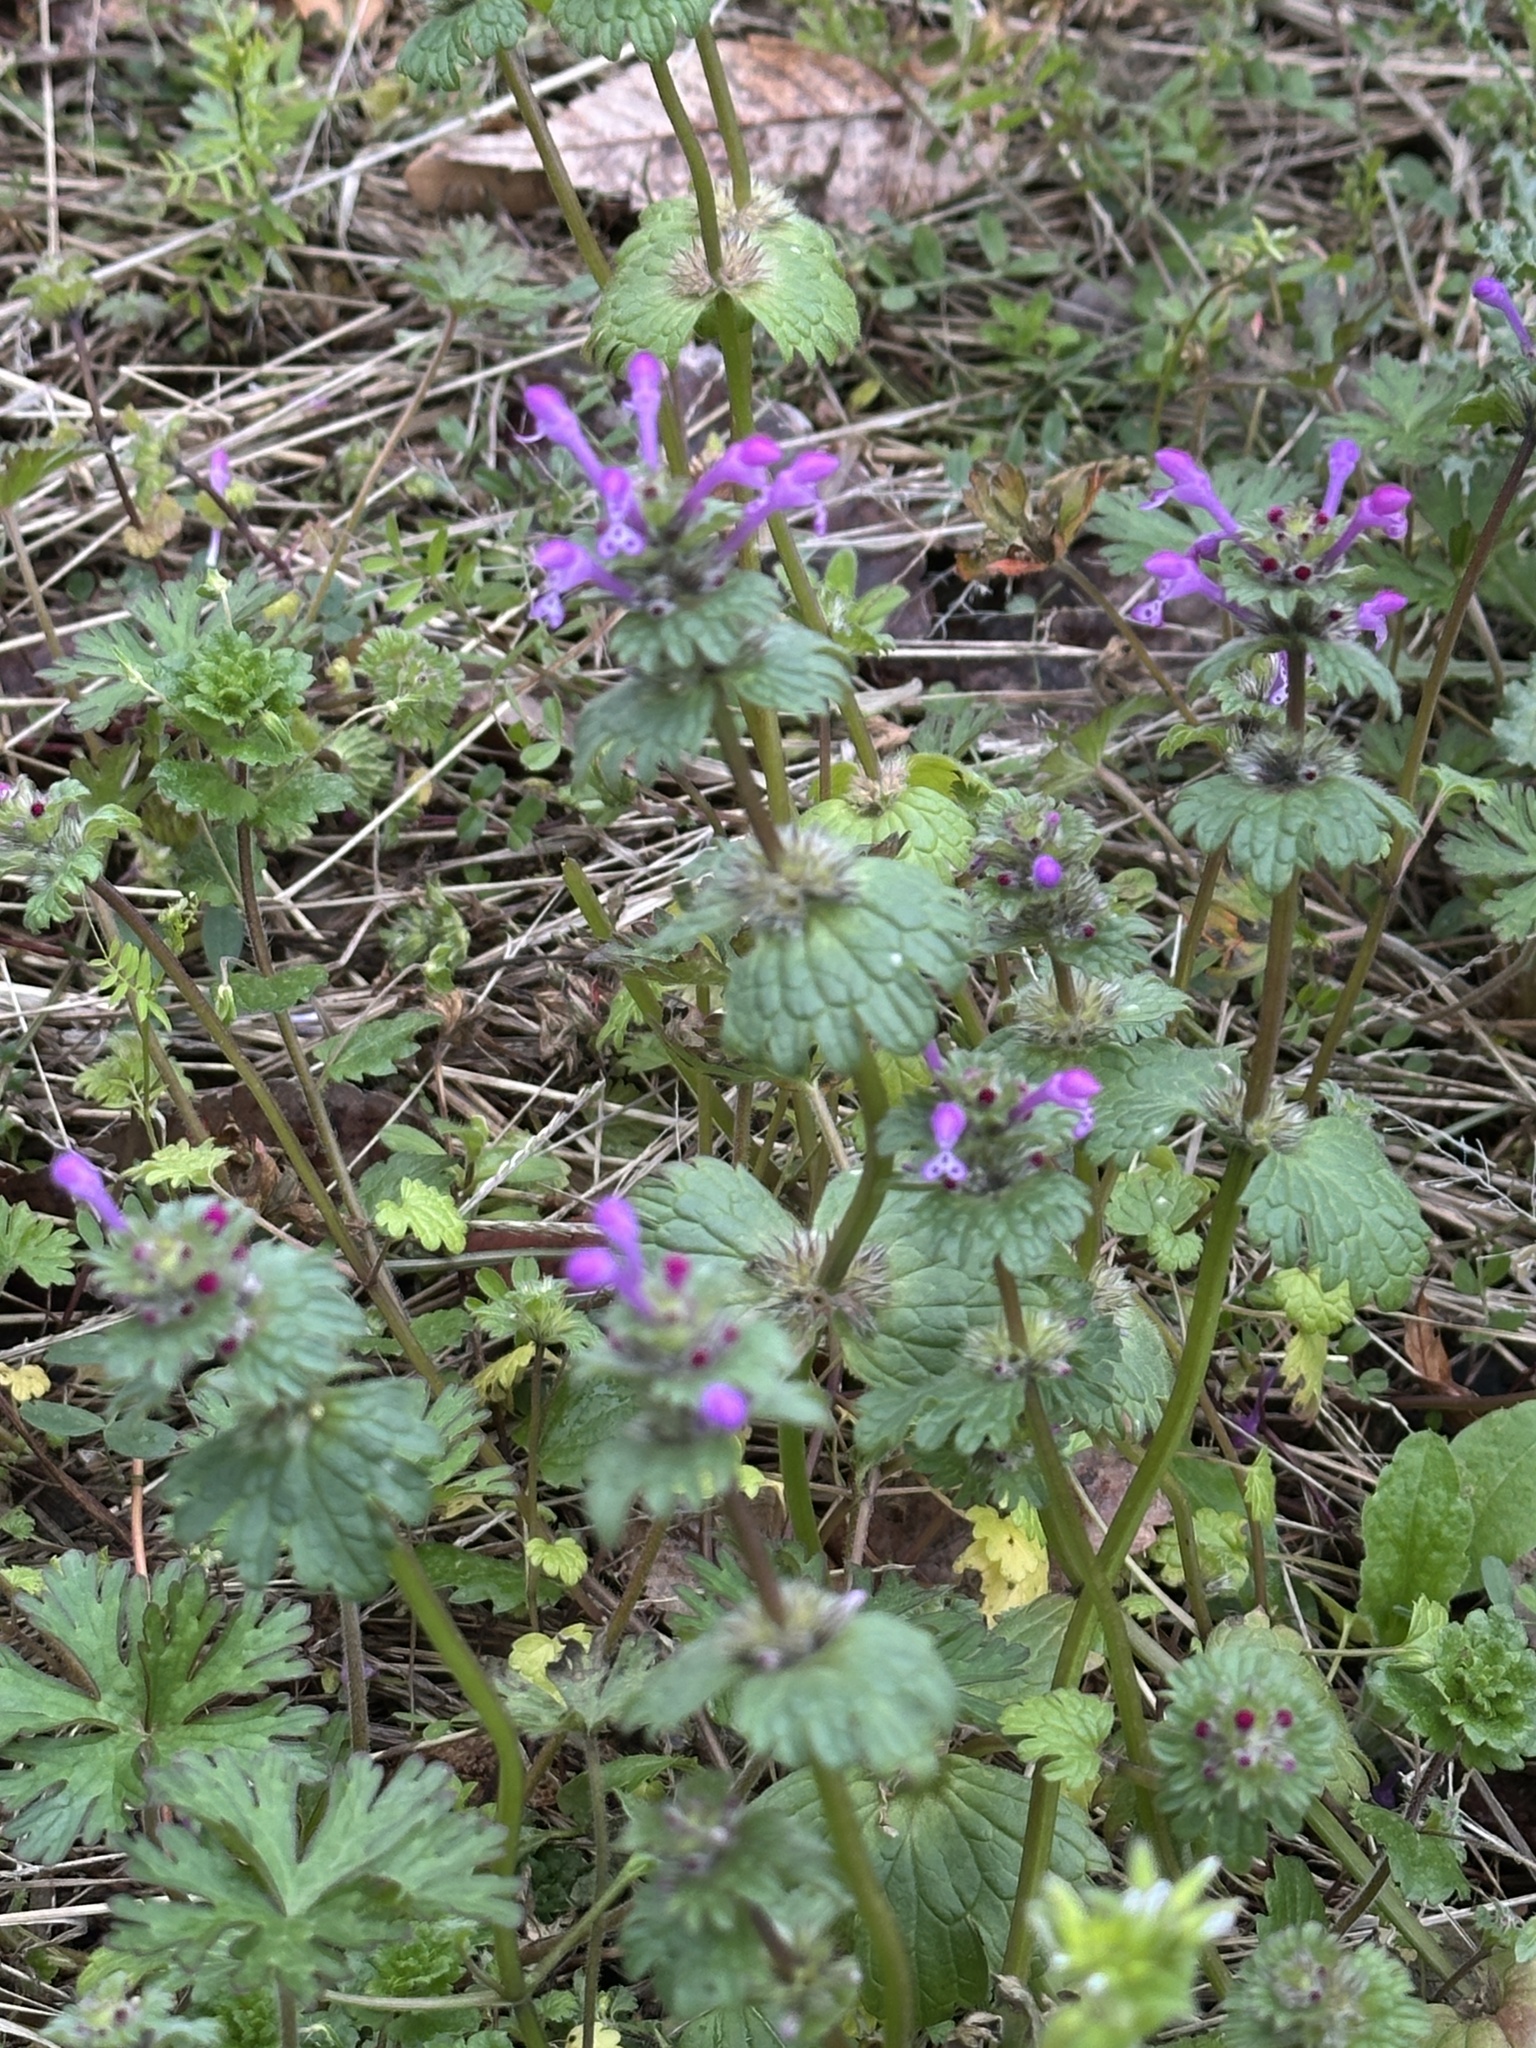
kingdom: Plantae
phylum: Tracheophyta
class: Magnoliopsida
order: Lamiales
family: Lamiaceae
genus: Lamium
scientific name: Lamium amplexicaule
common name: Henbit dead-nettle
